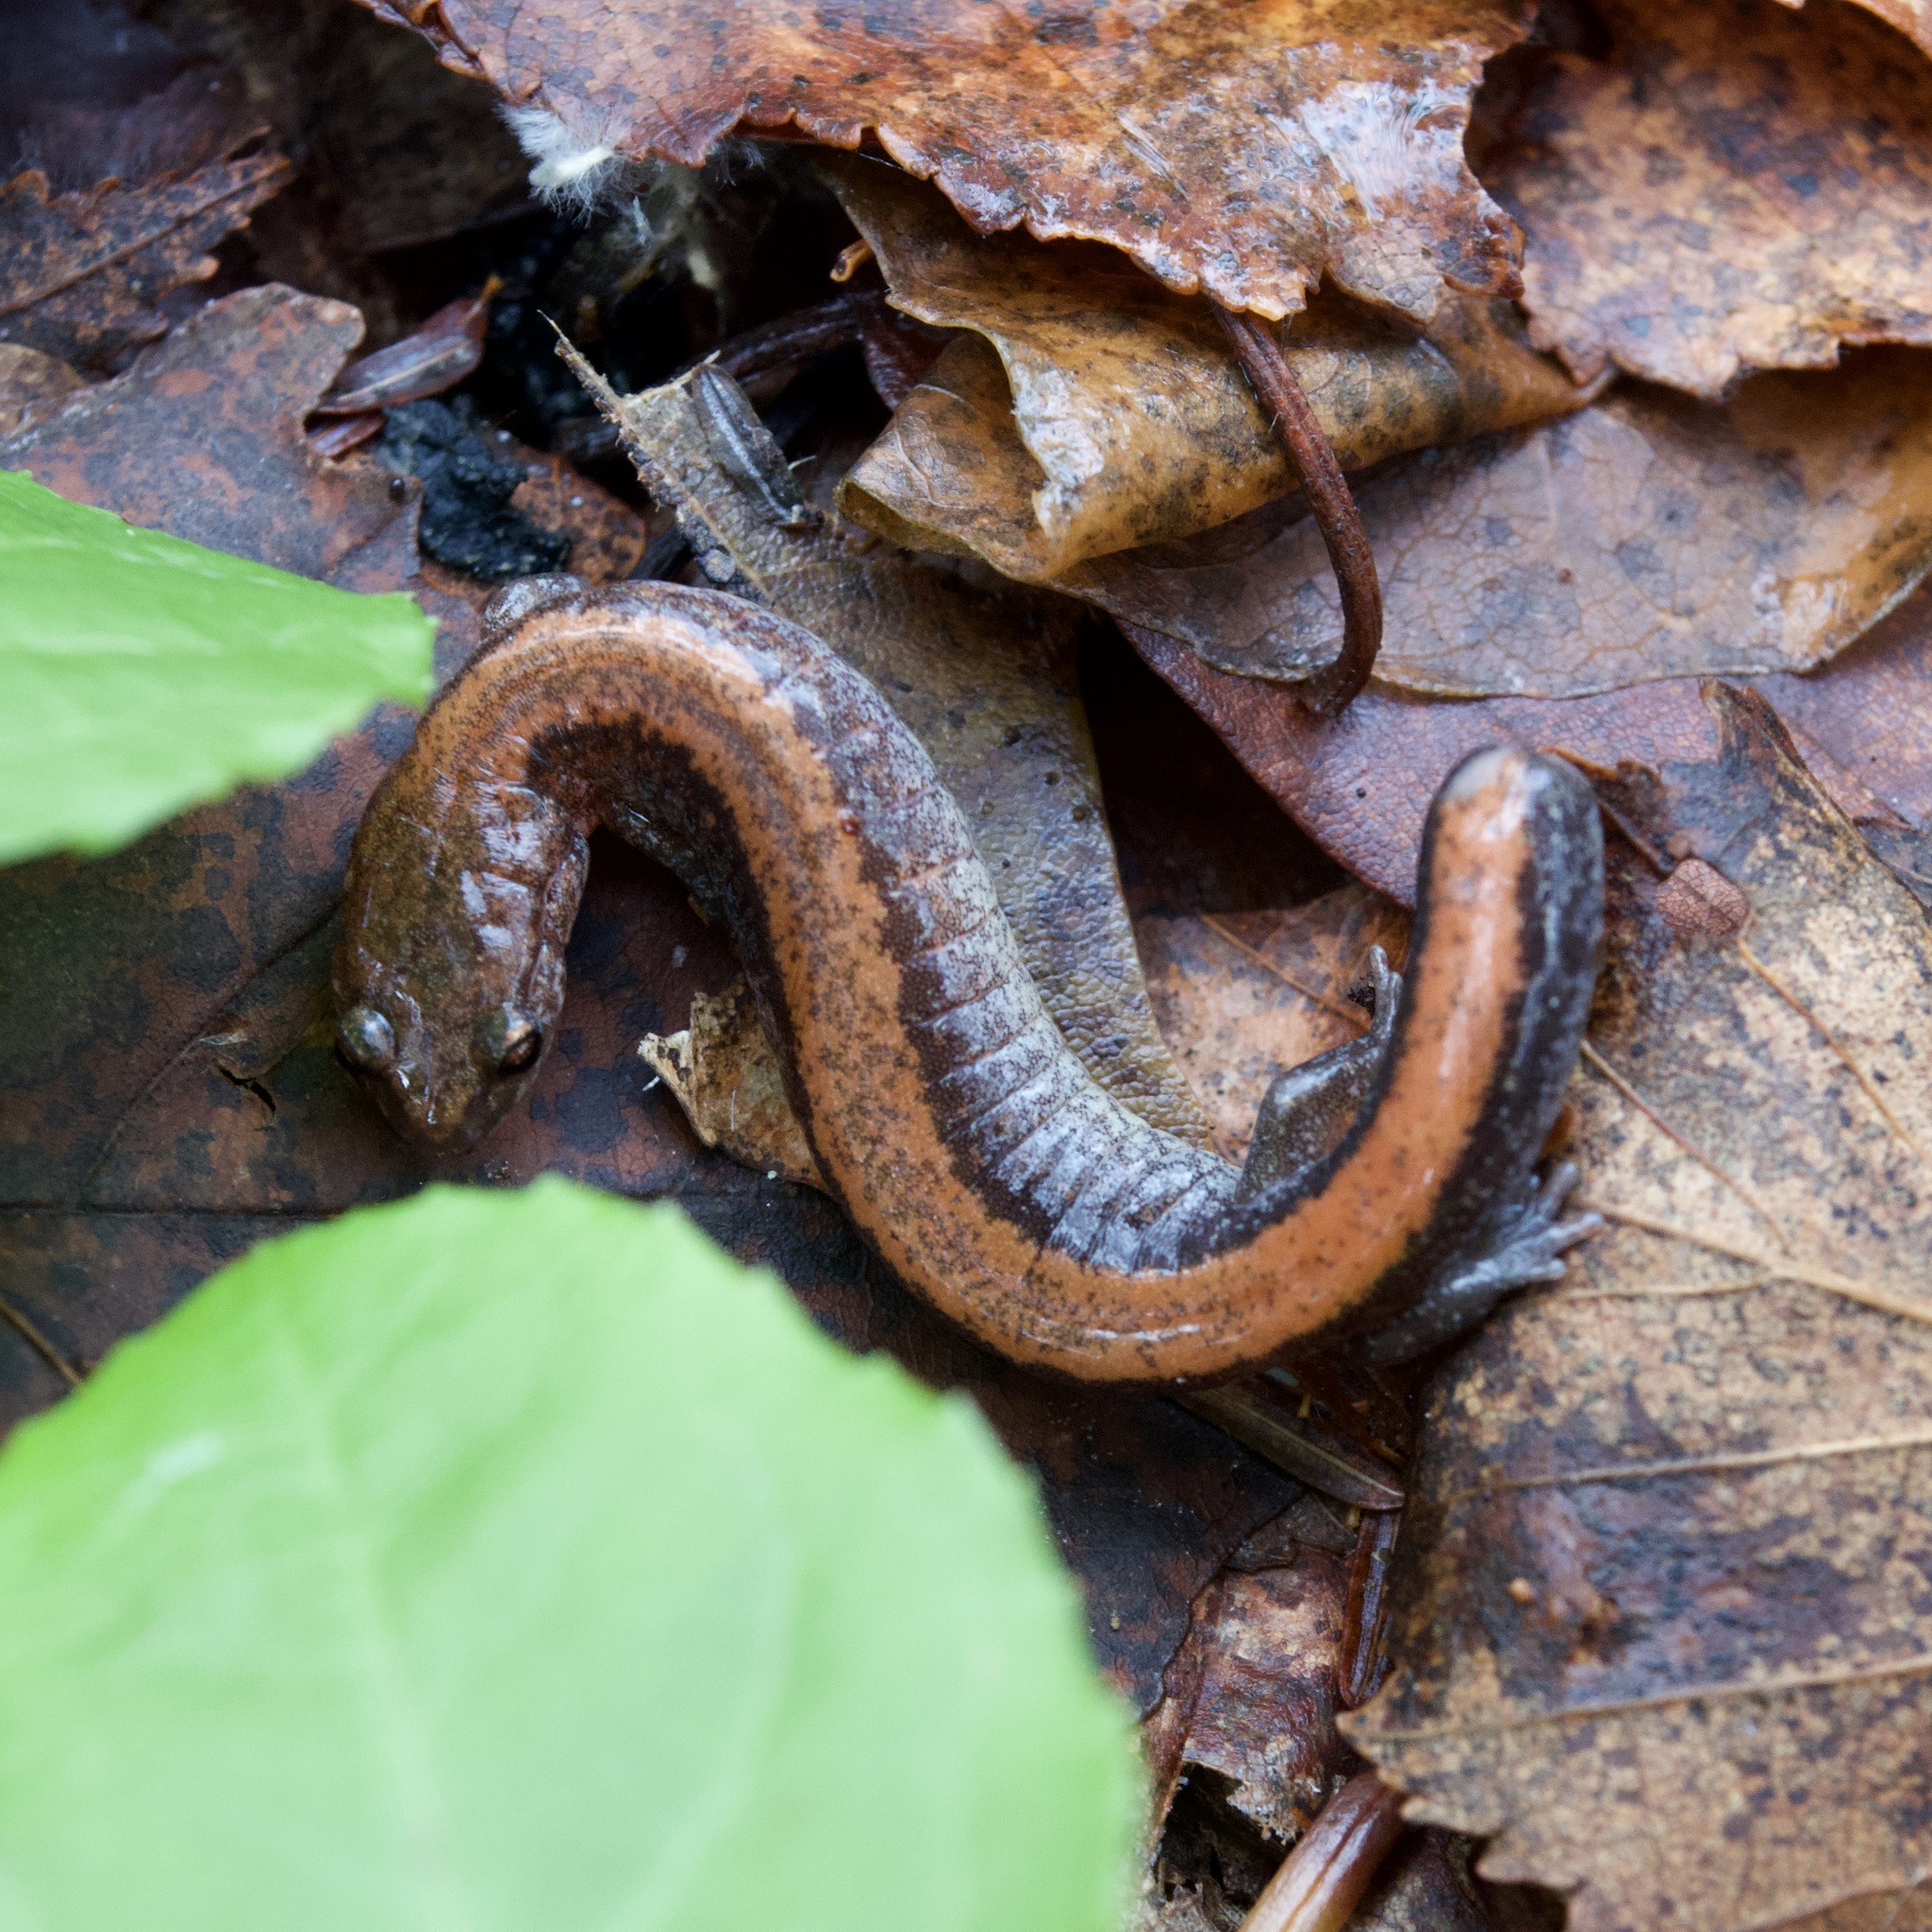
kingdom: Animalia
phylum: Chordata
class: Amphibia
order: Caudata
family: Plethodontidae
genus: Plethodon
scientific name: Plethodon cinereus
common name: Redback salamander
